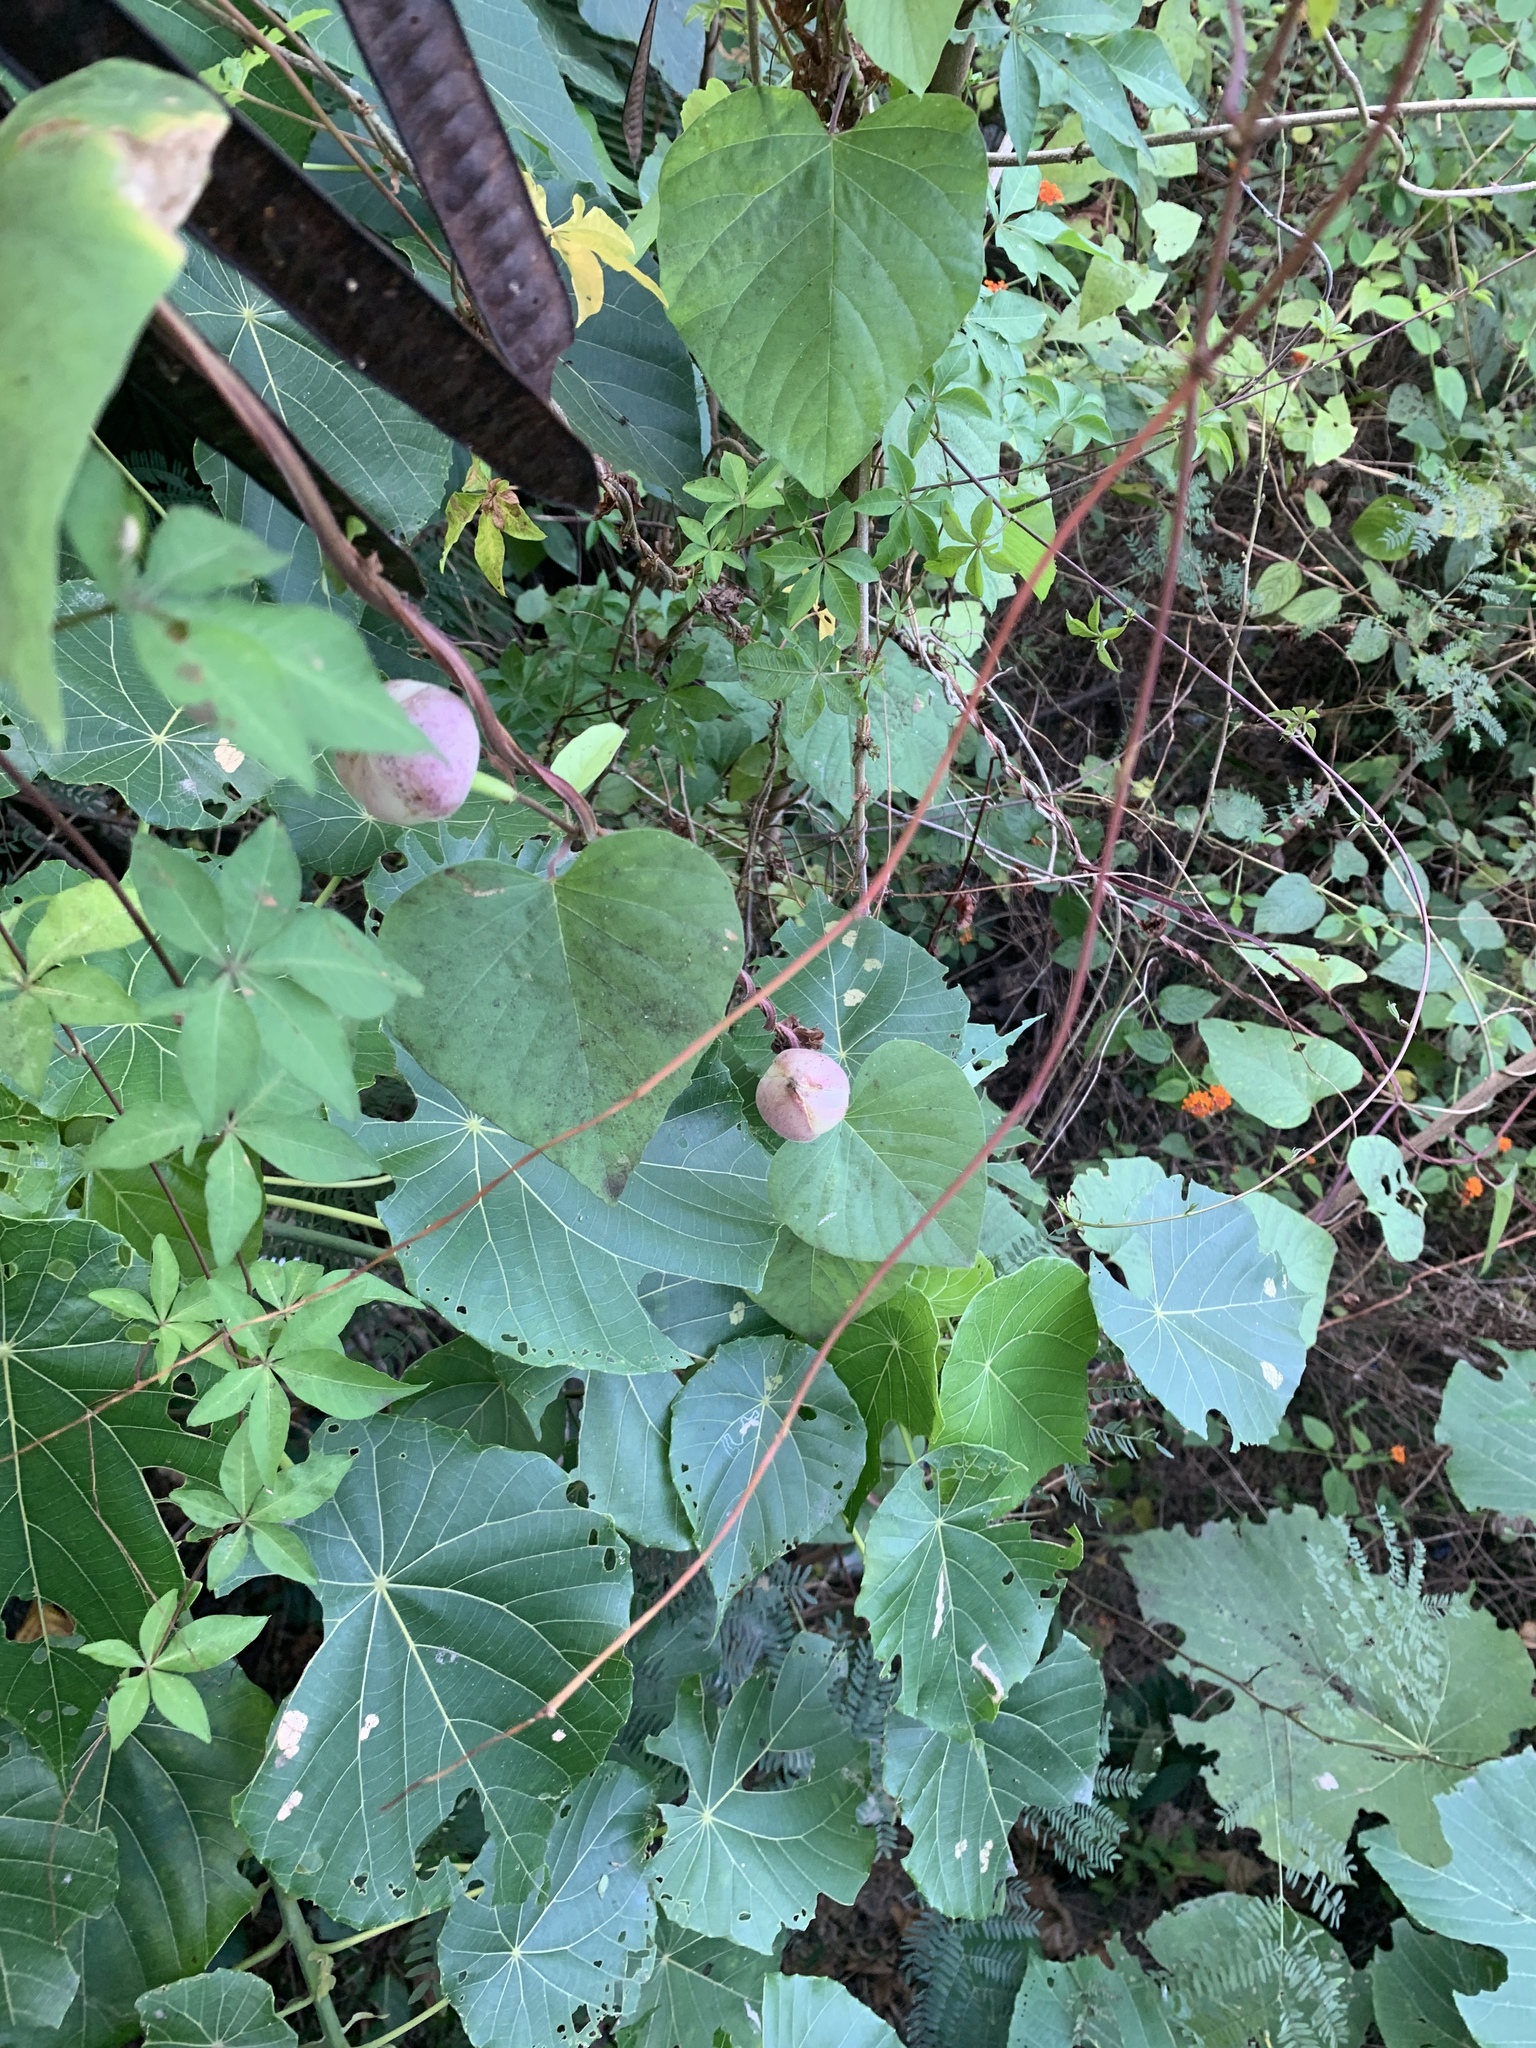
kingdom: Plantae
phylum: Tracheophyta
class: Magnoliopsida
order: Solanales
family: Convolvulaceae
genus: Operculina
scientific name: Operculina turpethum
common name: Transparent wood-rose
